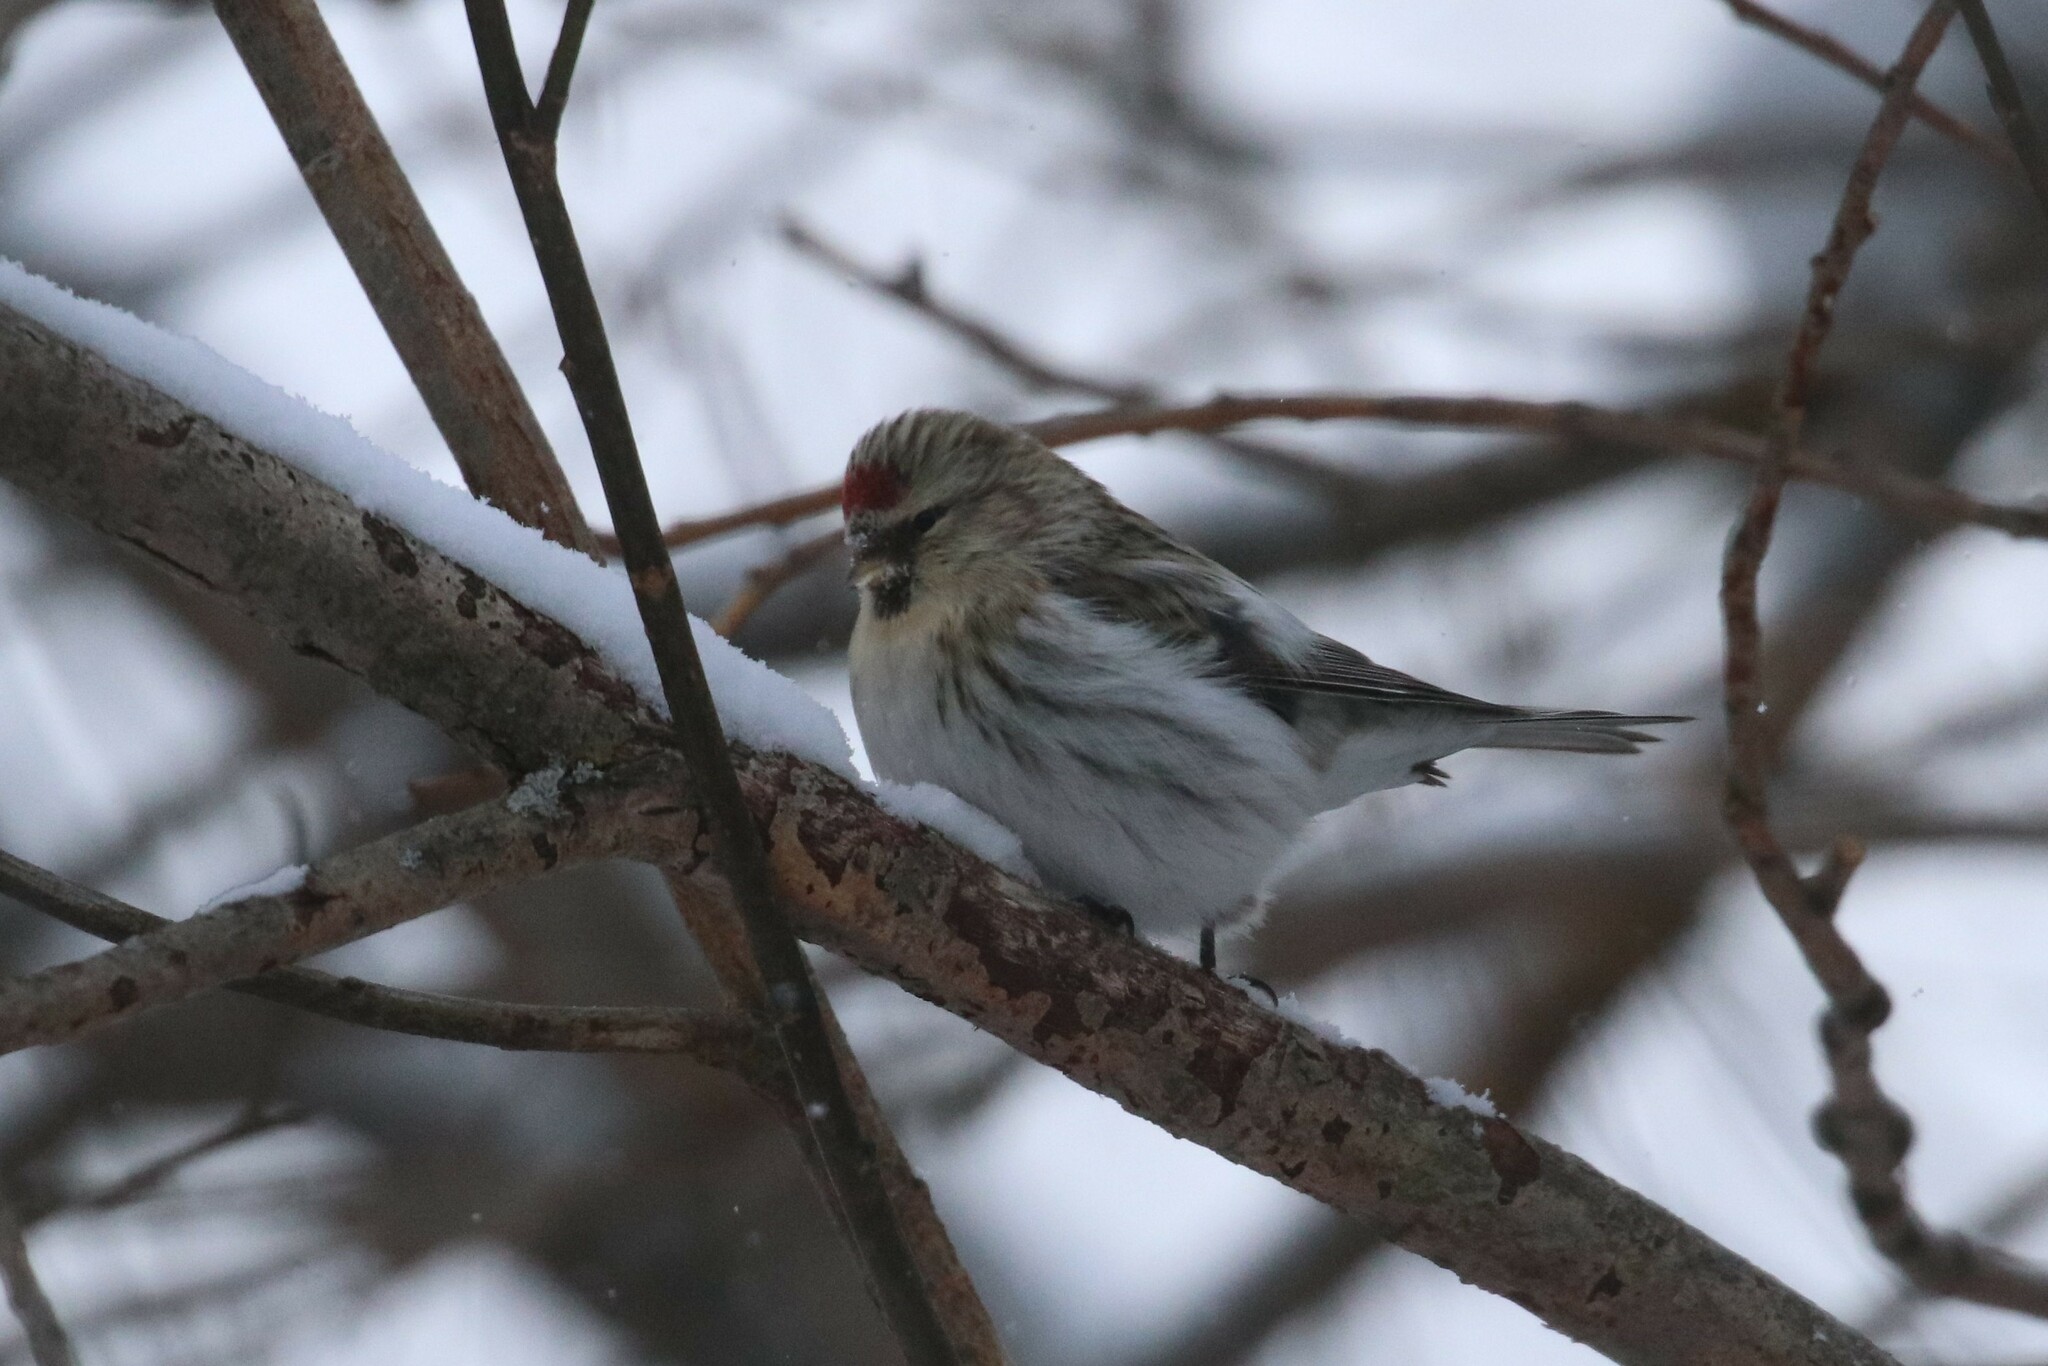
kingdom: Animalia
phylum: Chordata
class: Aves
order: Passeriformes
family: Fringillidae
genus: Acanthis
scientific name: Acanthis flammea
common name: Common redpoll
